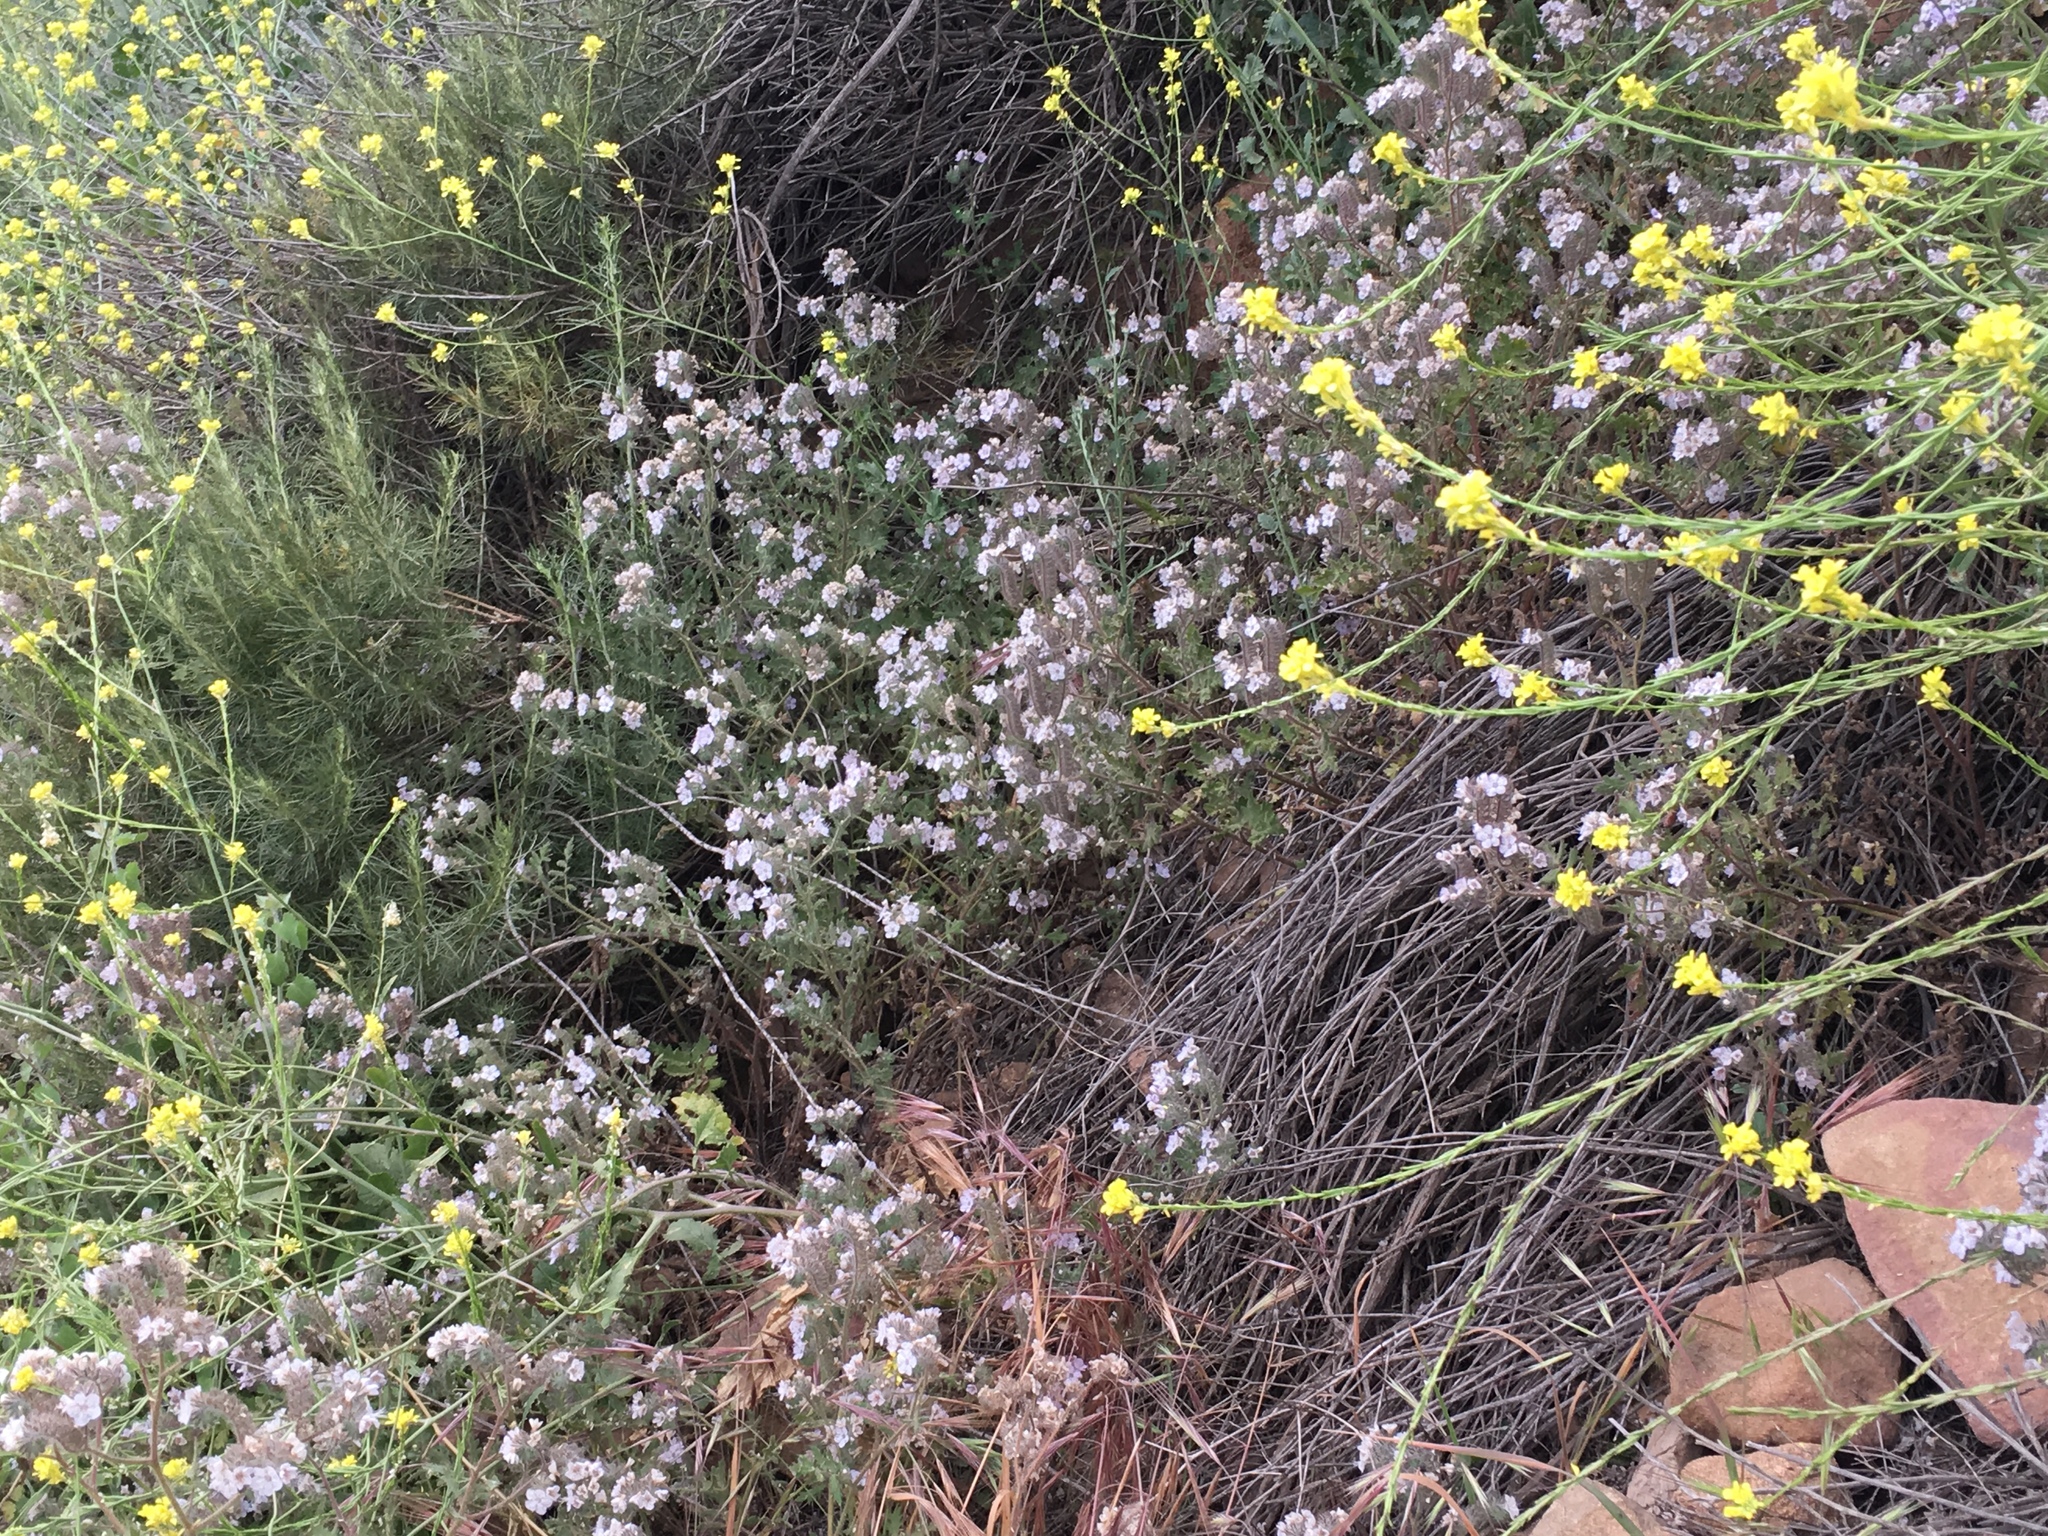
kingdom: Plantae
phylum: Tracheophyta
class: Magnoliopsida
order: Boraginales
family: Hydrophyllaceae
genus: Phacelia
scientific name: Phacelia cicutaria
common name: Caterpillar phacelia
